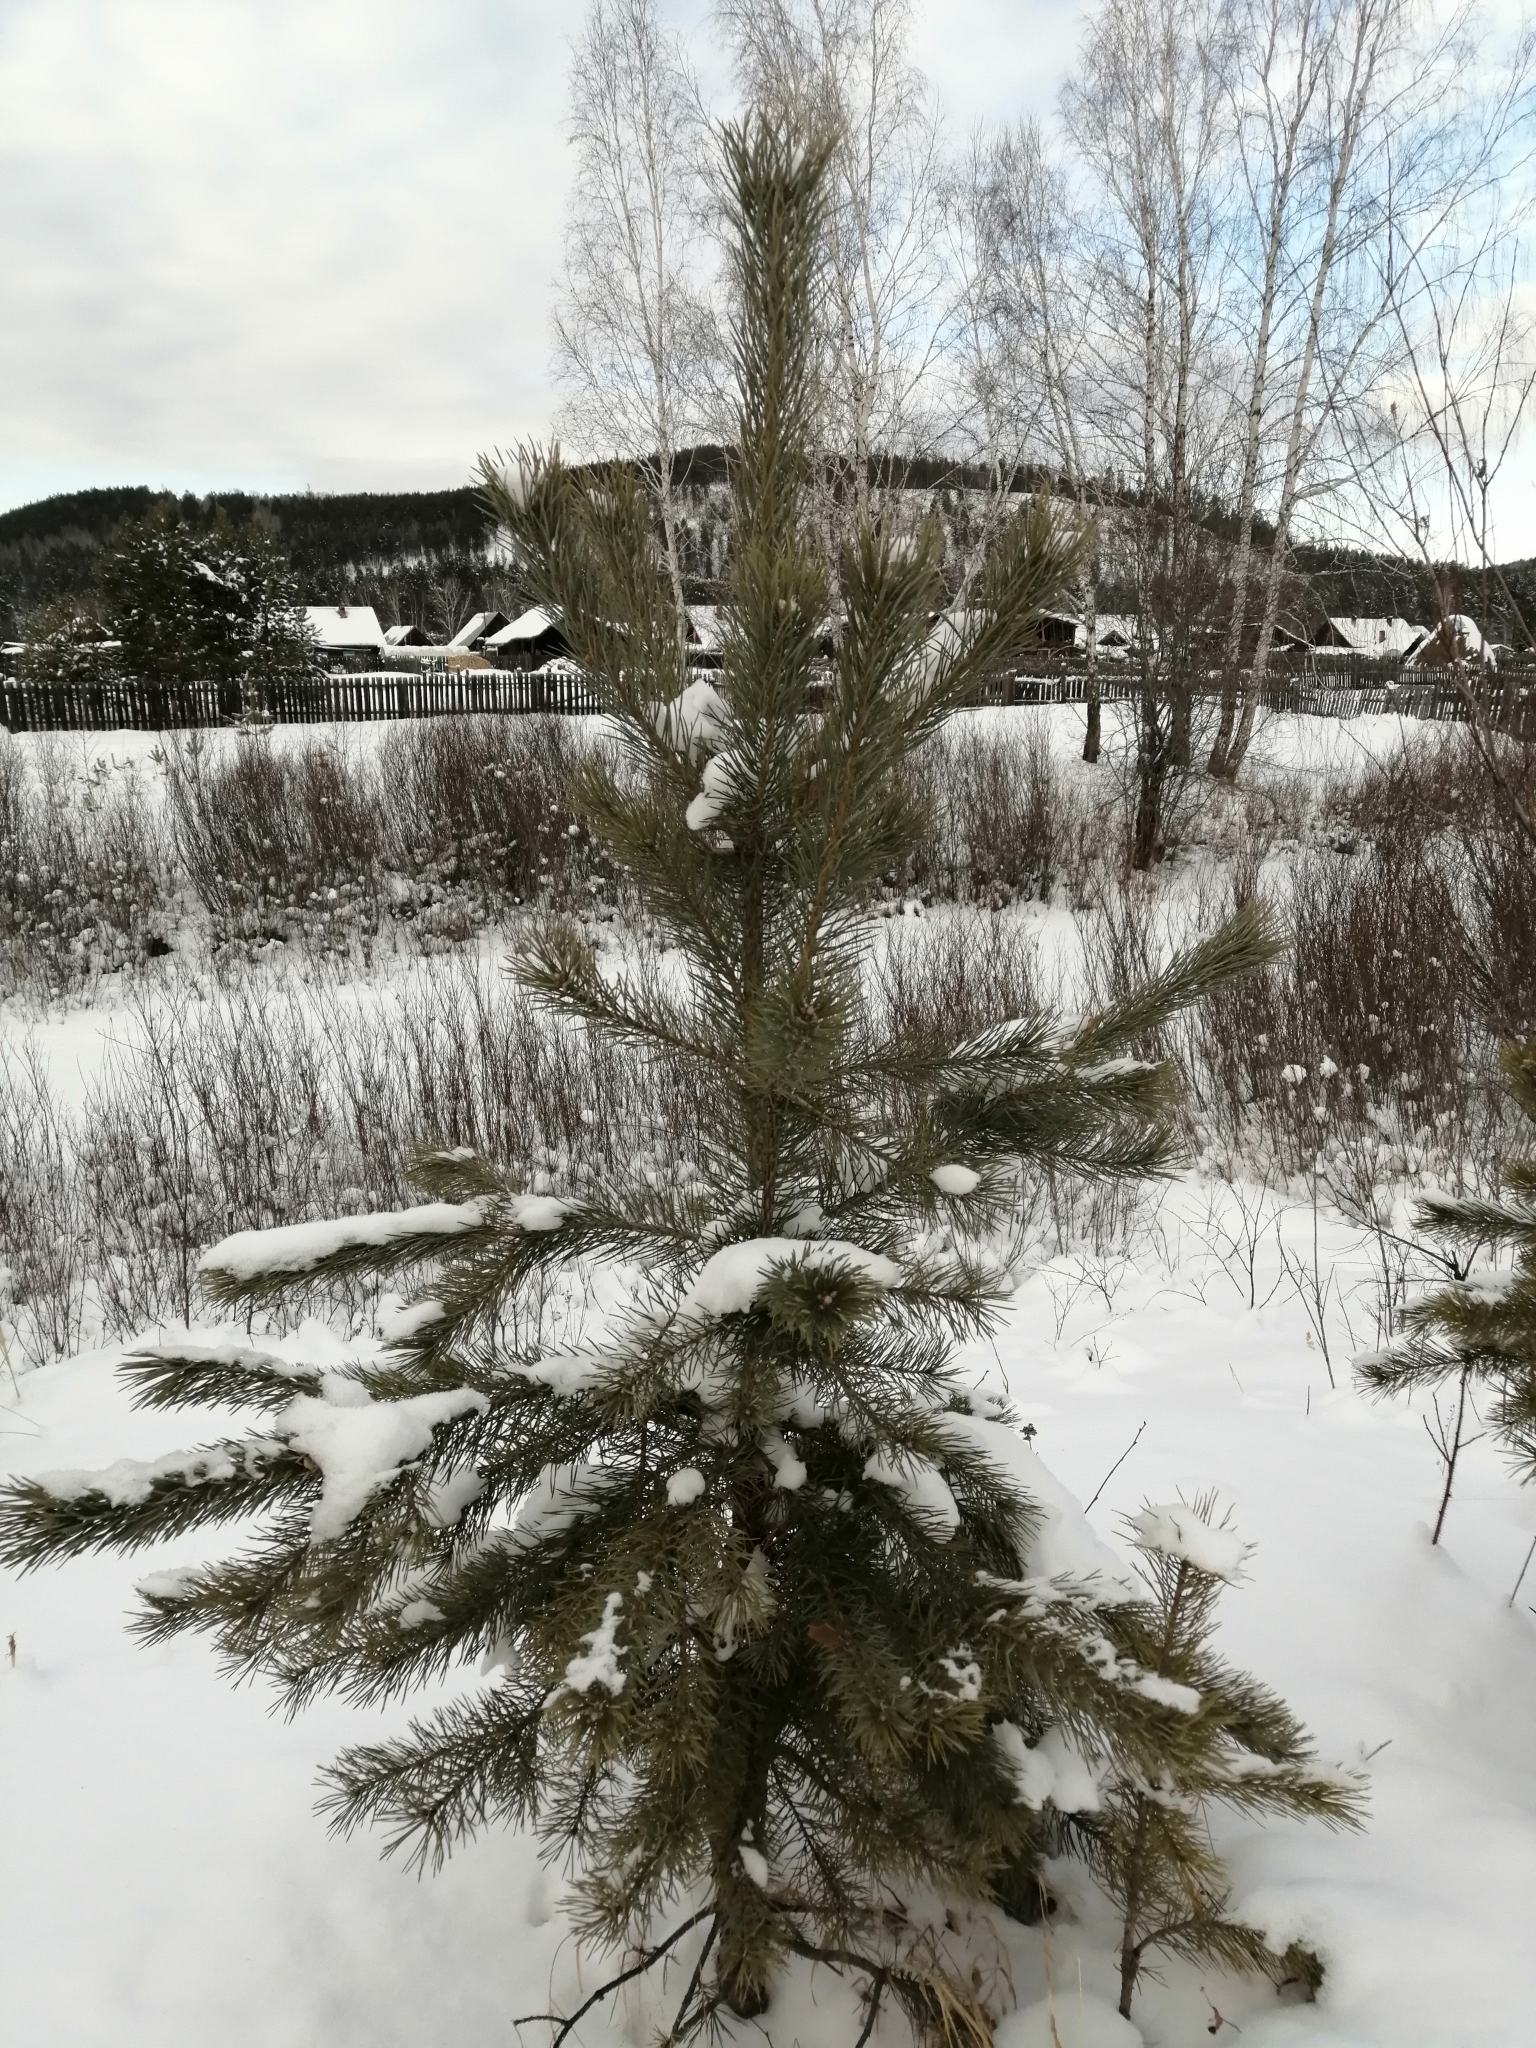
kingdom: Plantae
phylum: Tracheophyta
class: Pinopsida
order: Pinales
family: Pinaceae
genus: Pinus
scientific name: Pinus sylvestris
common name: Scots pine
